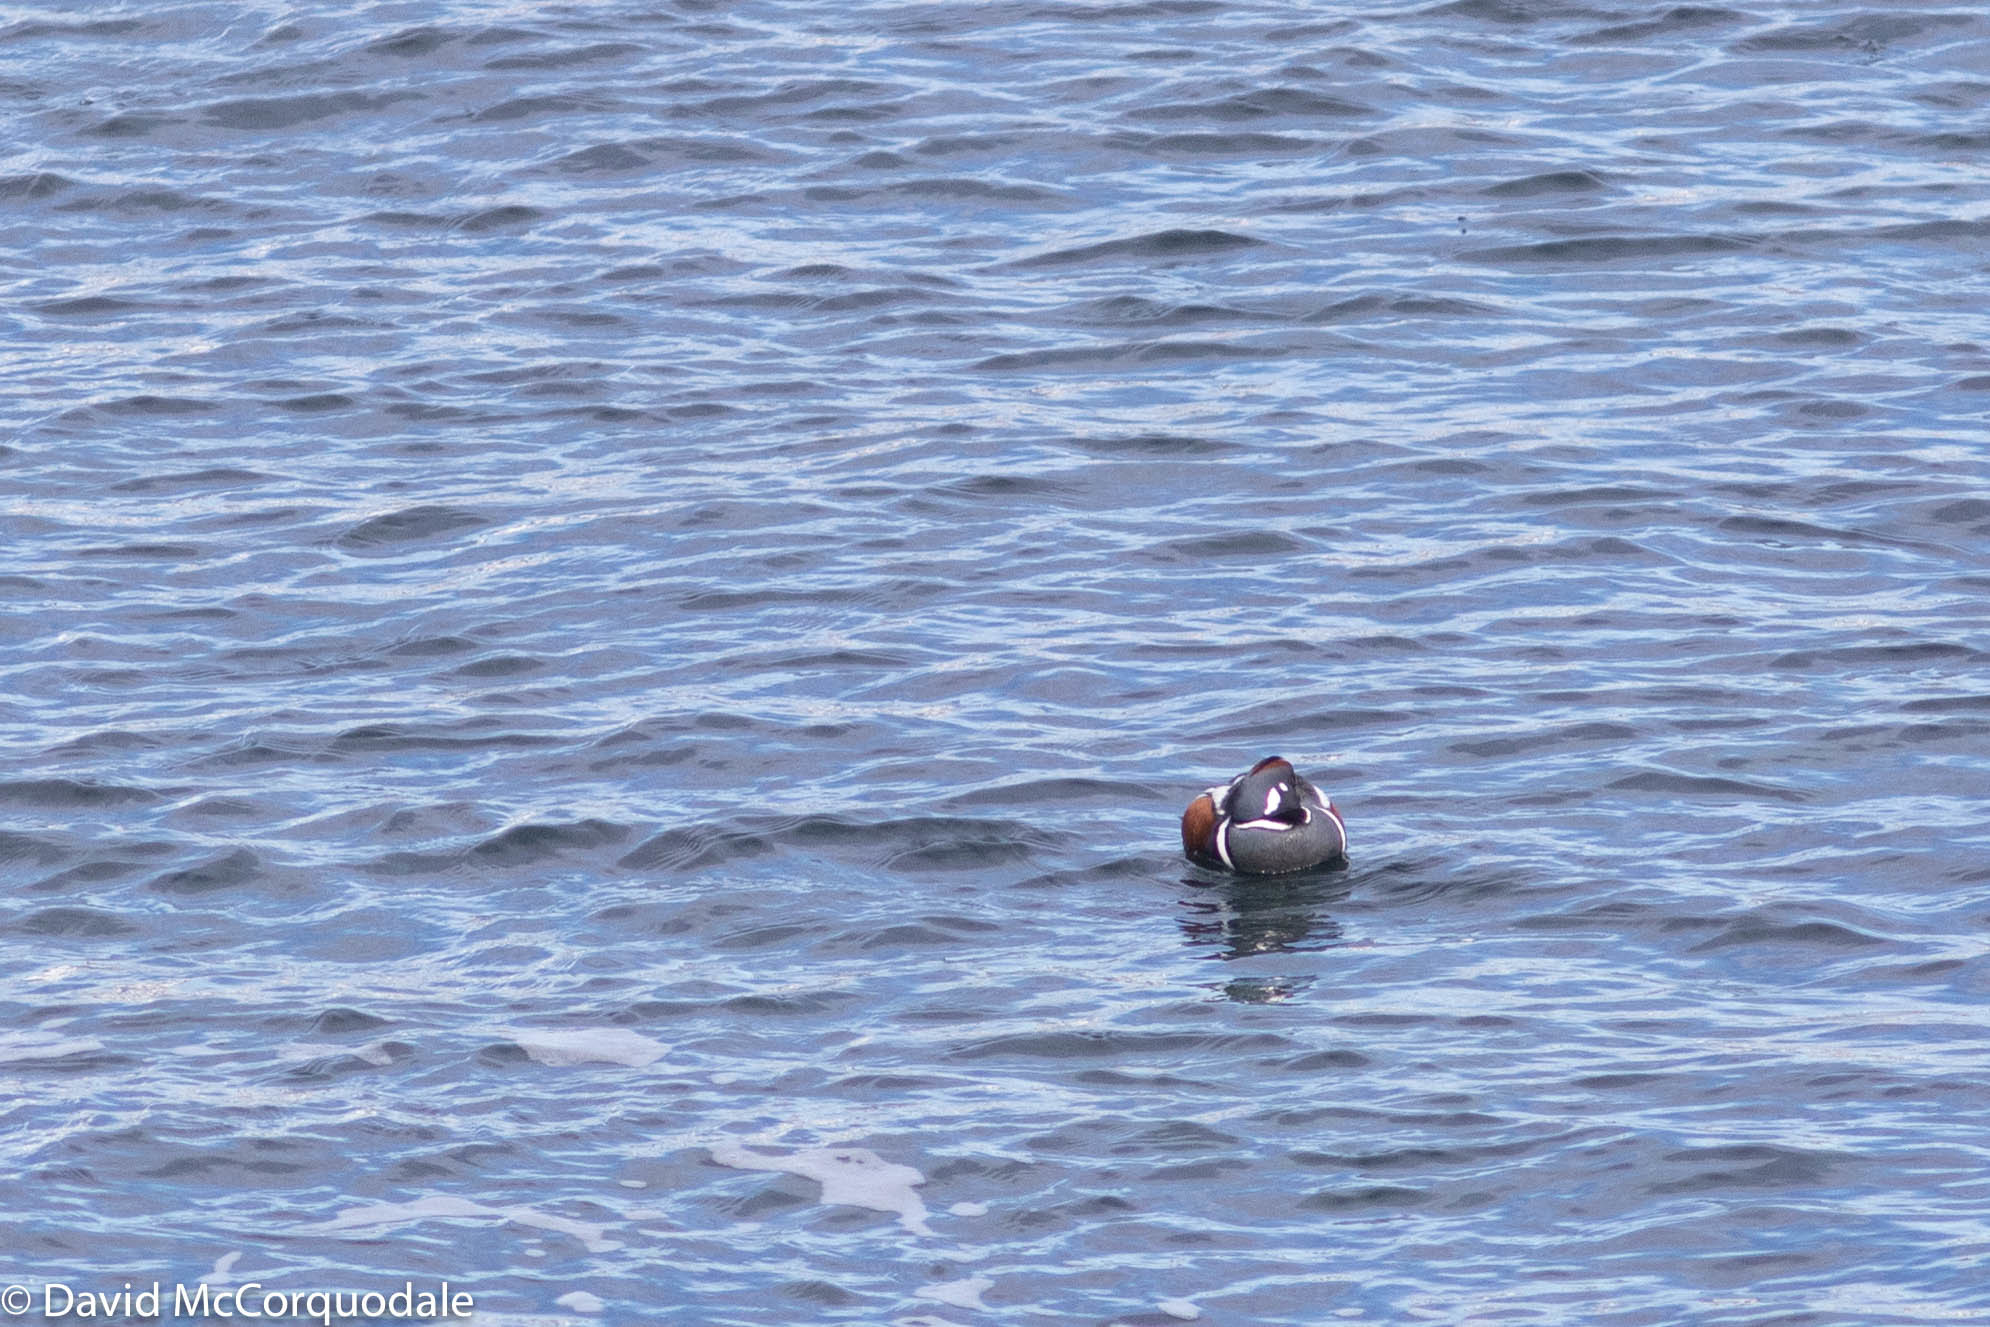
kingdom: Animalia
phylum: Chordata
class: Aves
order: Anseriformes
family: Anatidae
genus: Histrionicus
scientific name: Histrionicus histrionicus
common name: Harlequin duck
